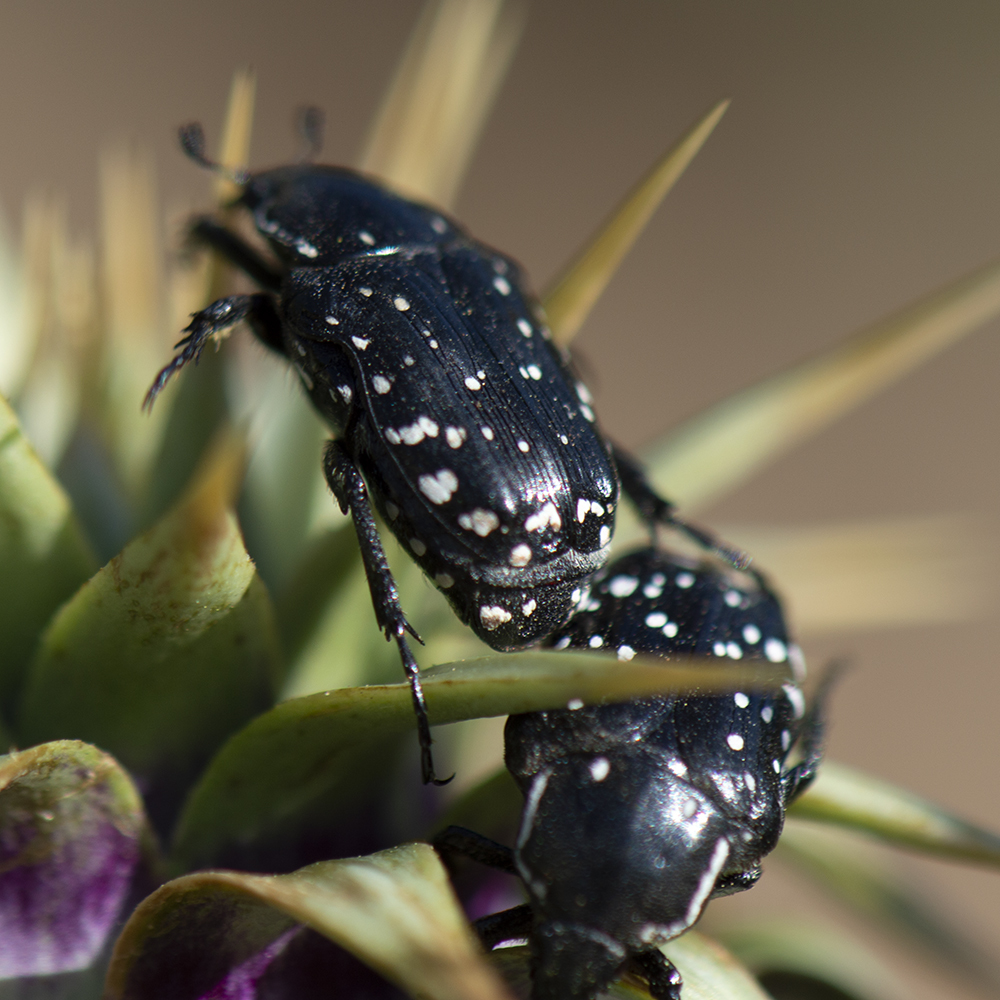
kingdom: Animalia
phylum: Arthropoda
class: Insecta
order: Coleoptera
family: Scarabaeidae
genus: Oxythyrea
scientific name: Oxythyrea cinctella
